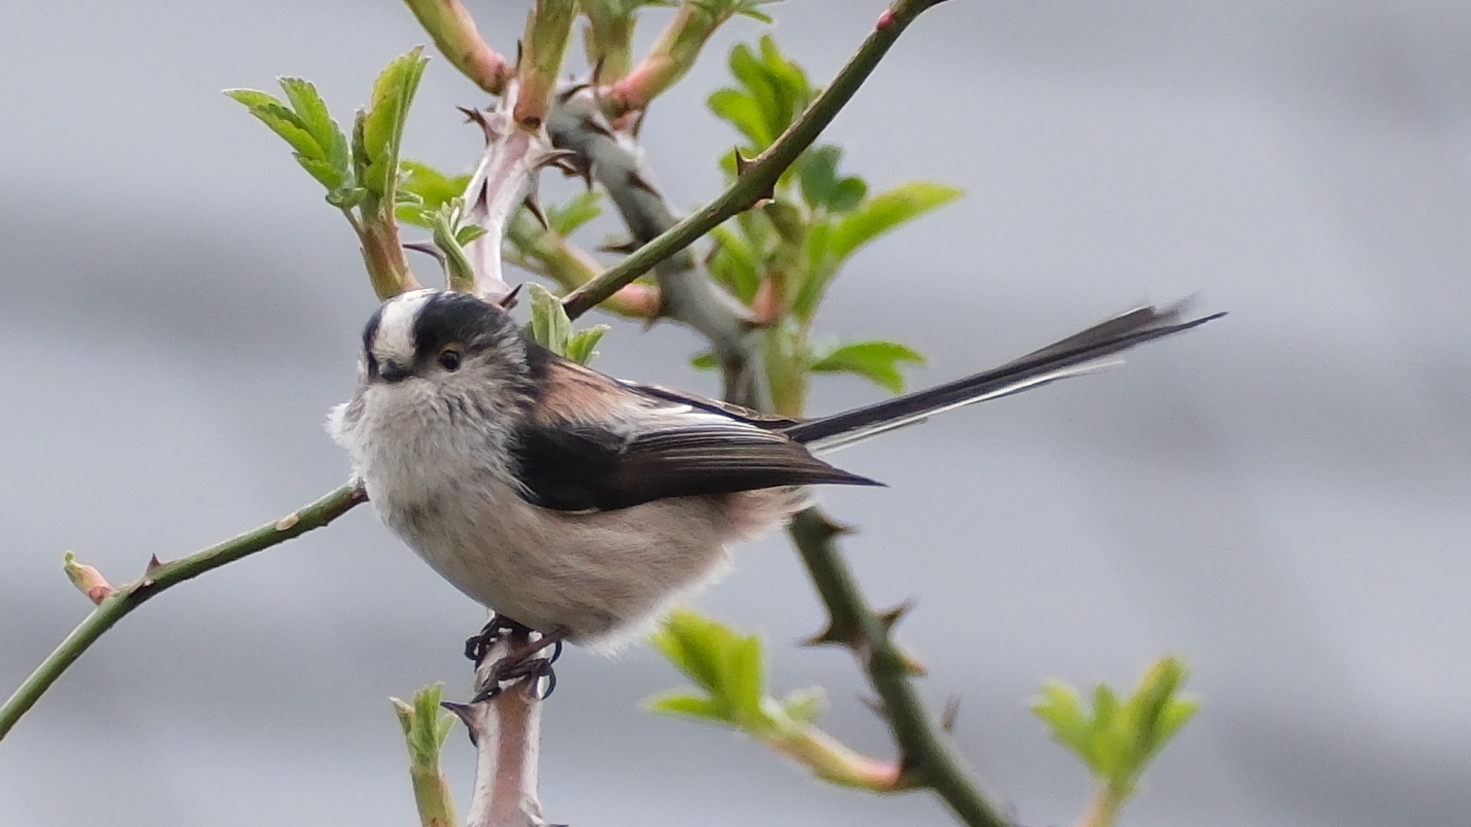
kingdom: Animalia
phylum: Chordata
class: Aves
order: Passeriformes
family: Aegithalidae
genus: Aegithalos
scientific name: Aegithalos caudatus
